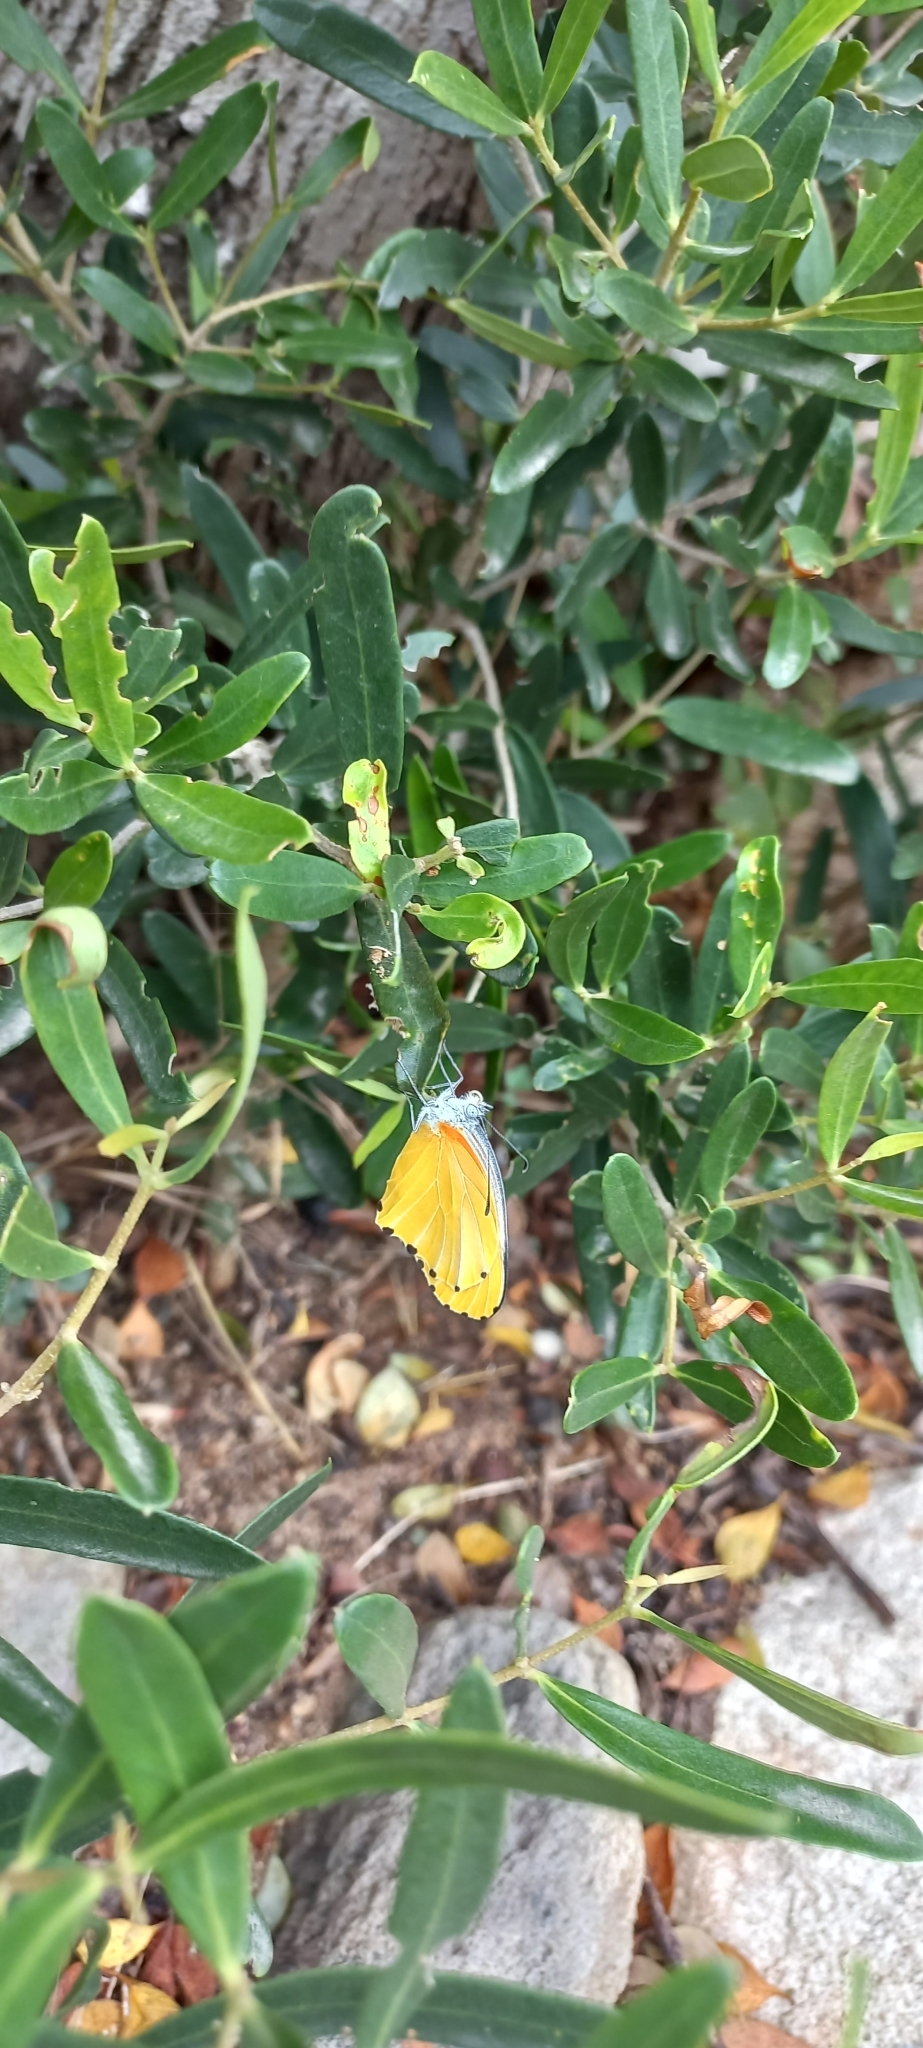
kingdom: Animalia
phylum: Arthropoda
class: Insecta
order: Lepidoptera
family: Pieridae
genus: Mylothris
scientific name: Mylothris agathina
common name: Eastern dotted border
